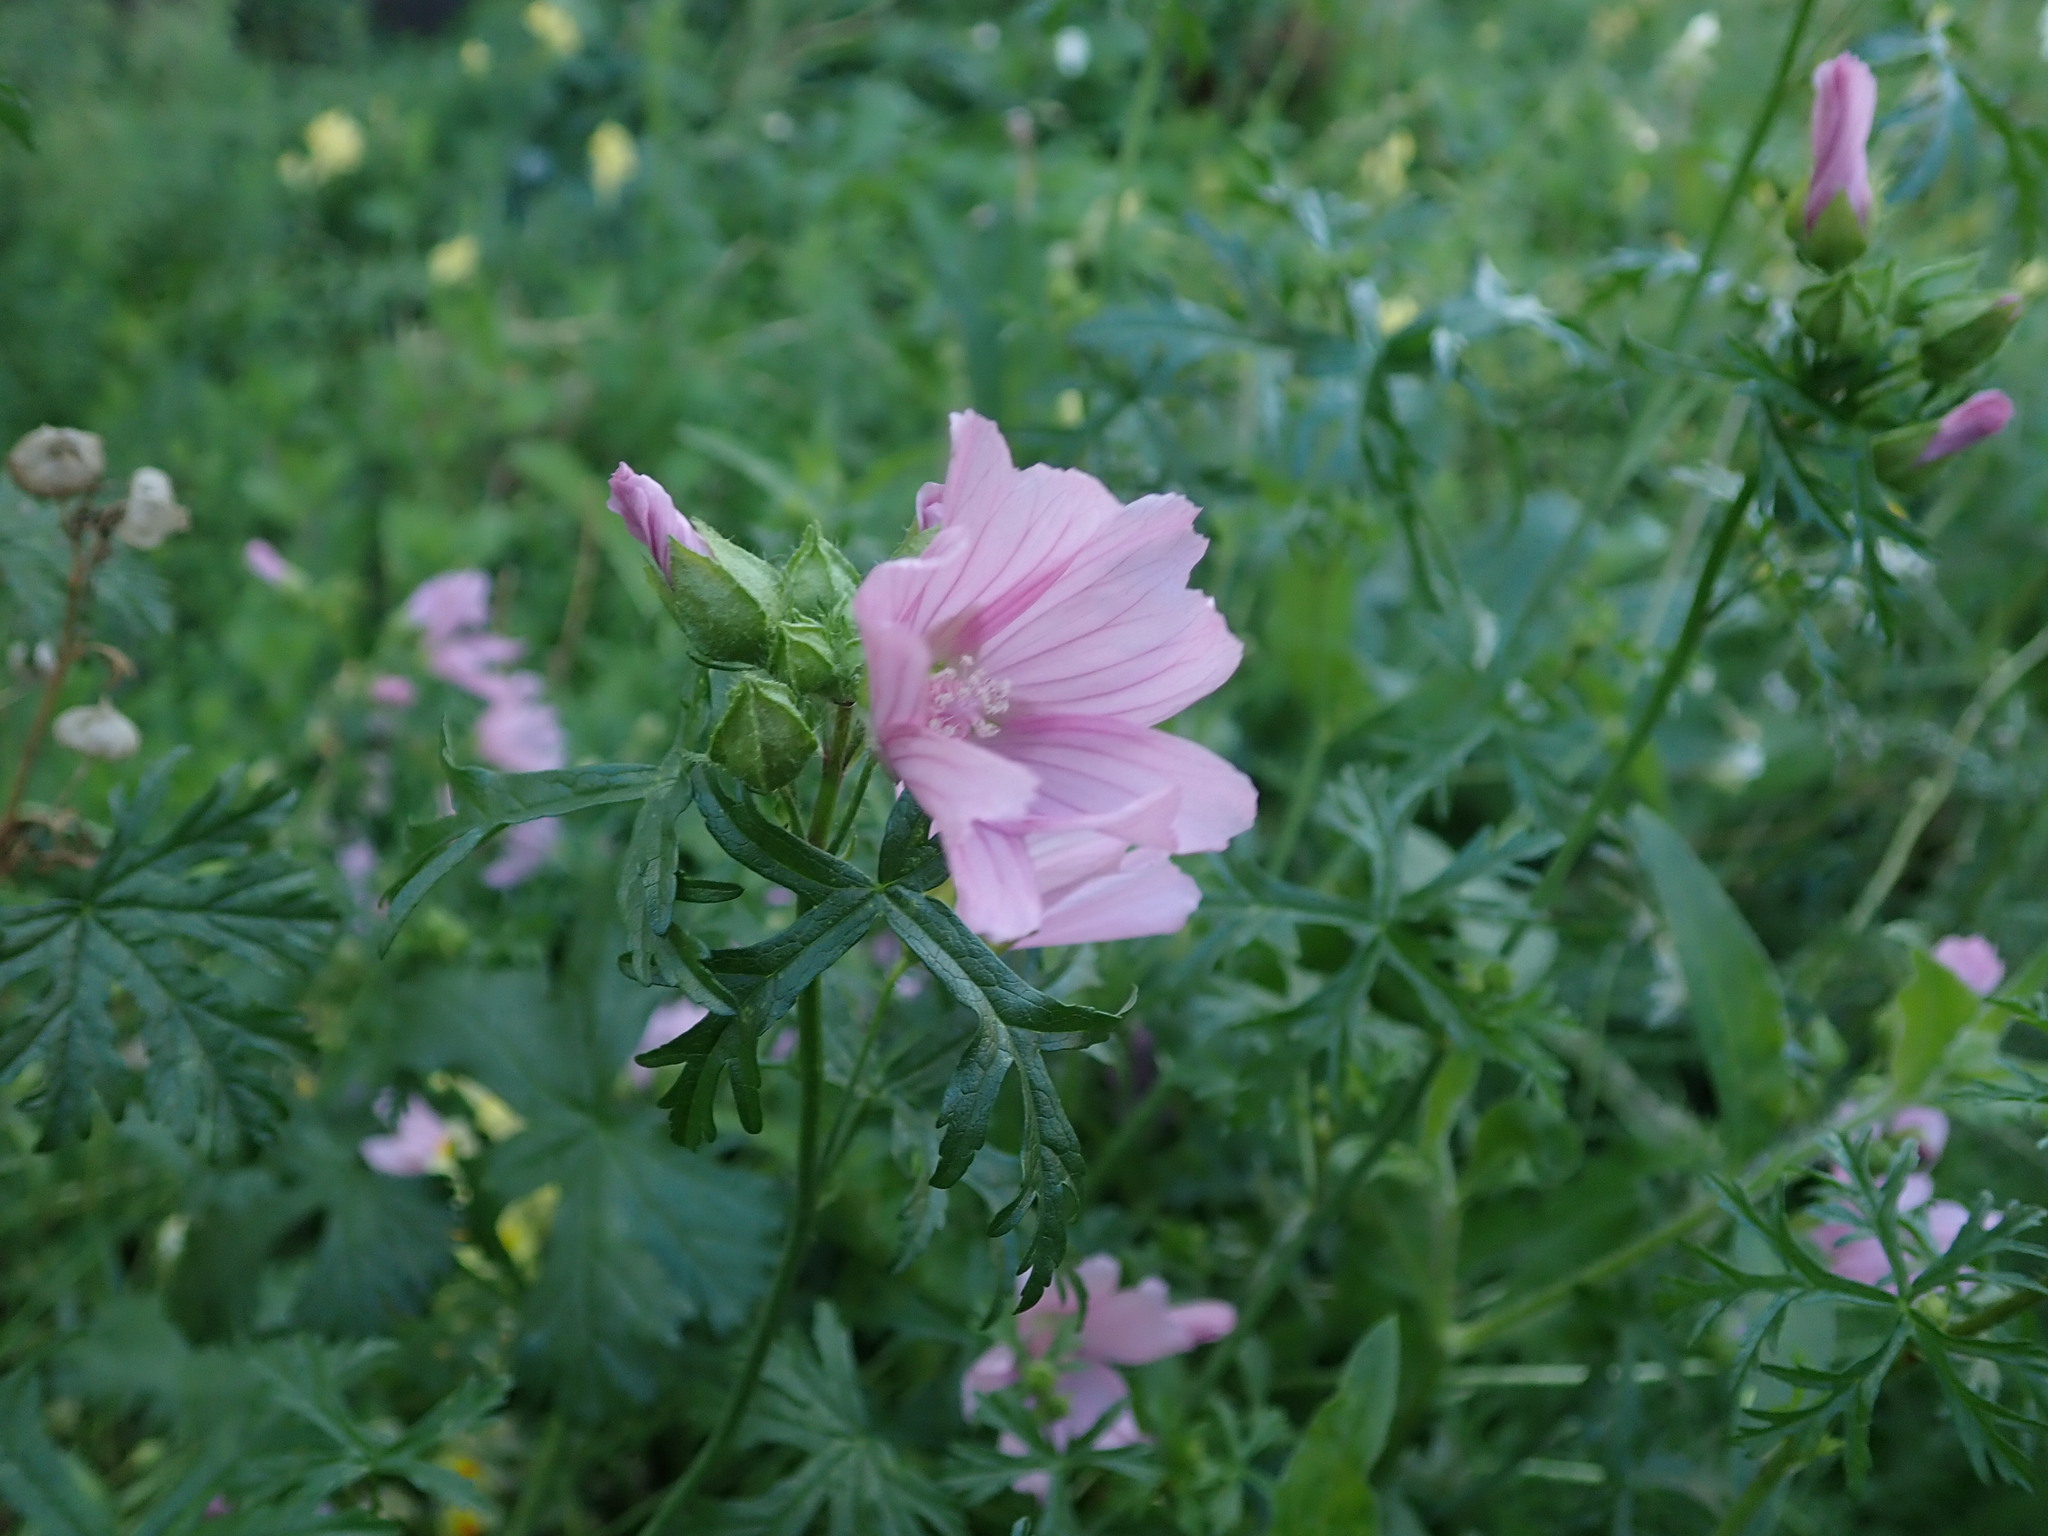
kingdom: Plantae
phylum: Tracheophyta
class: Magnoliopsida
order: Malvales
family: Malvaceae
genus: Malva
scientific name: Malva moschata
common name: Musk mallow
